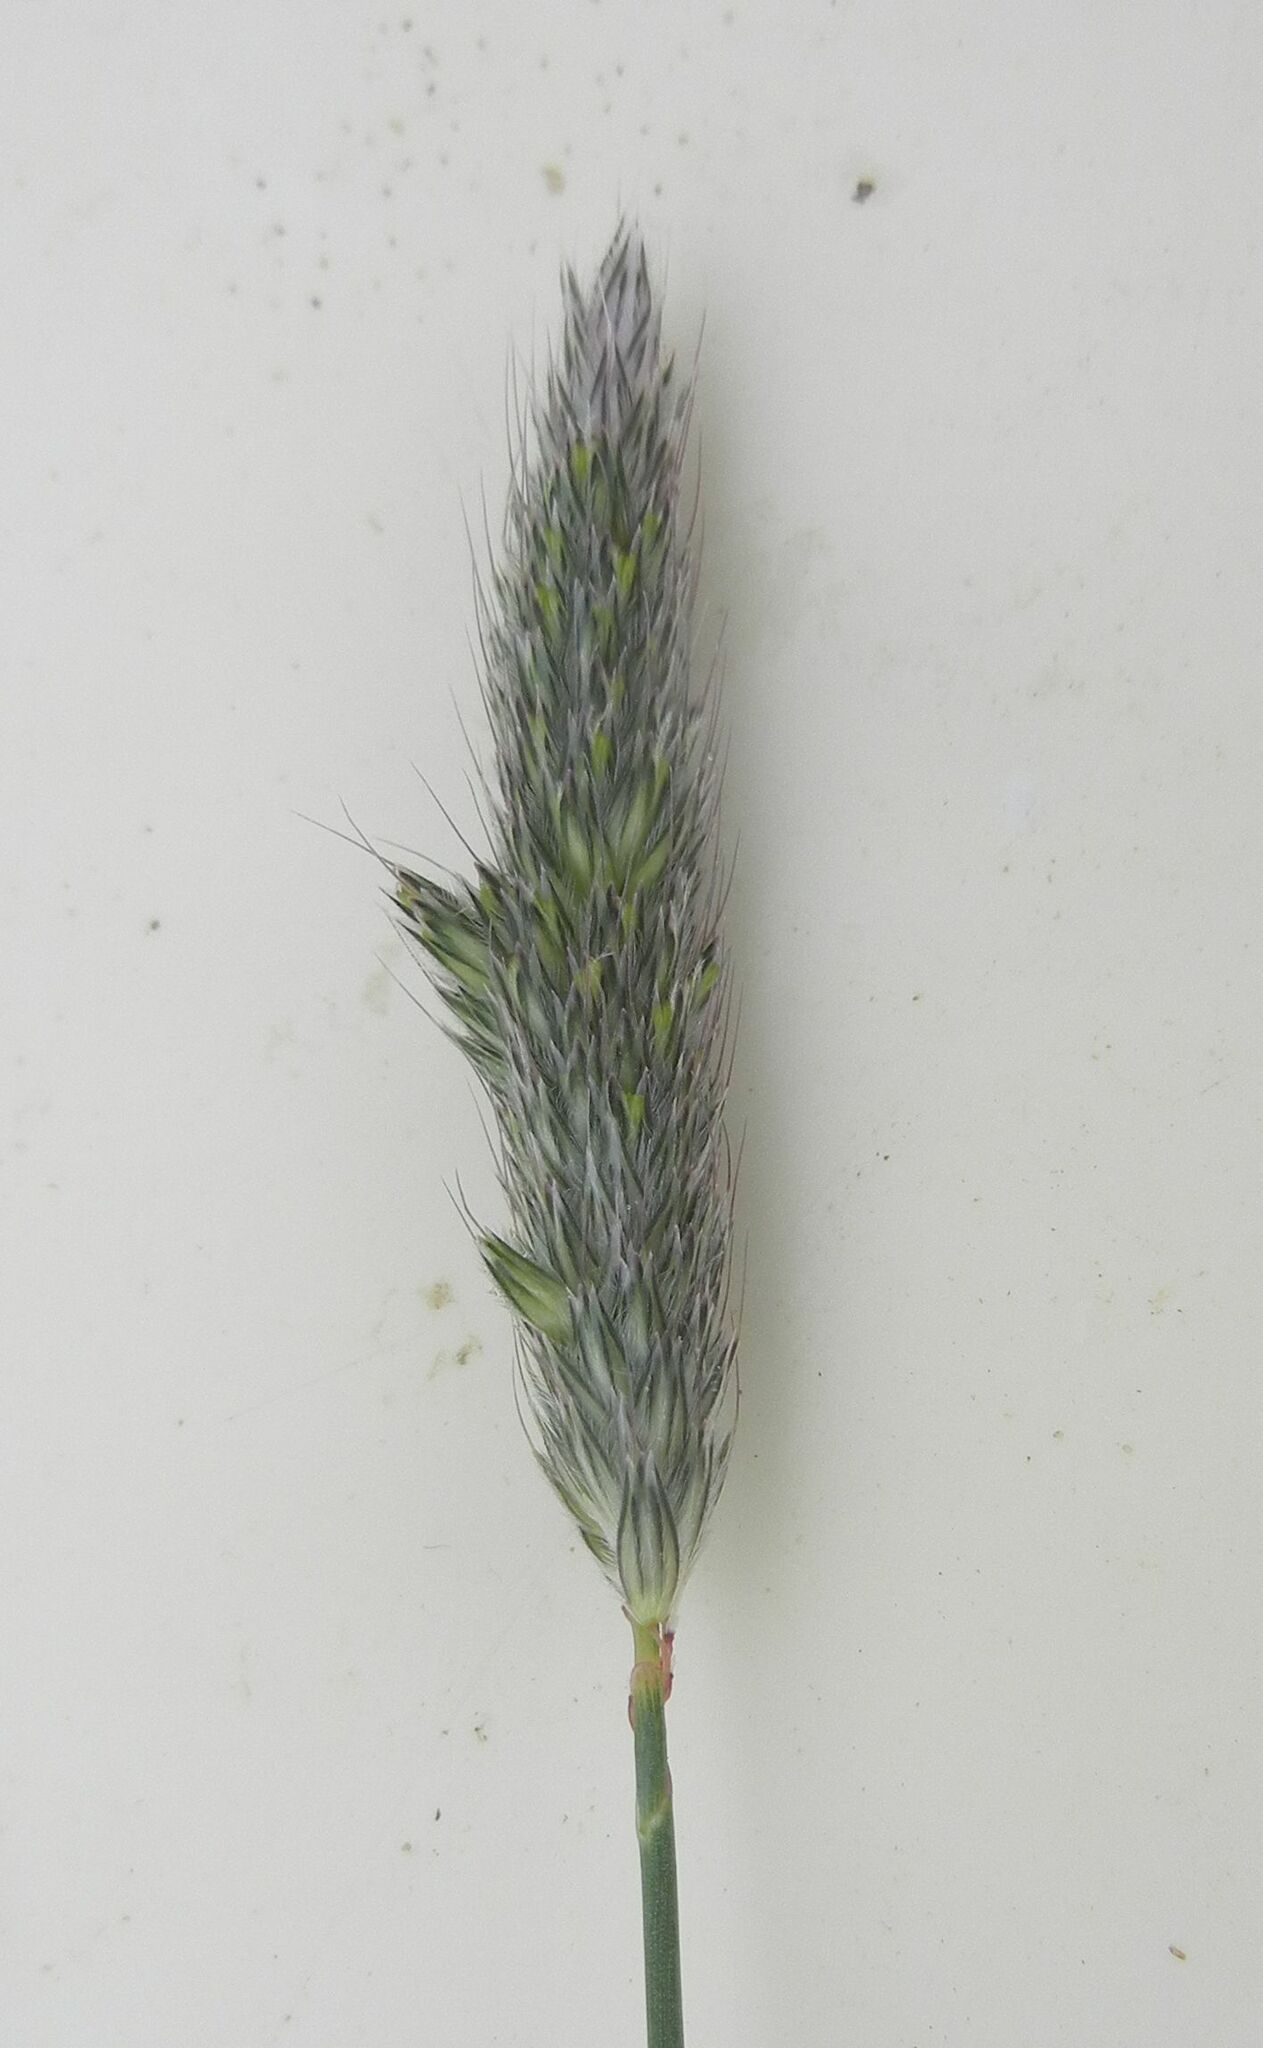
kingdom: Plantae
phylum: Tracheophyta
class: Liliopsida
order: Poales
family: Poaceae
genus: Alopecurus
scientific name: Alopecurus pratensis
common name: Meadow foxtail
